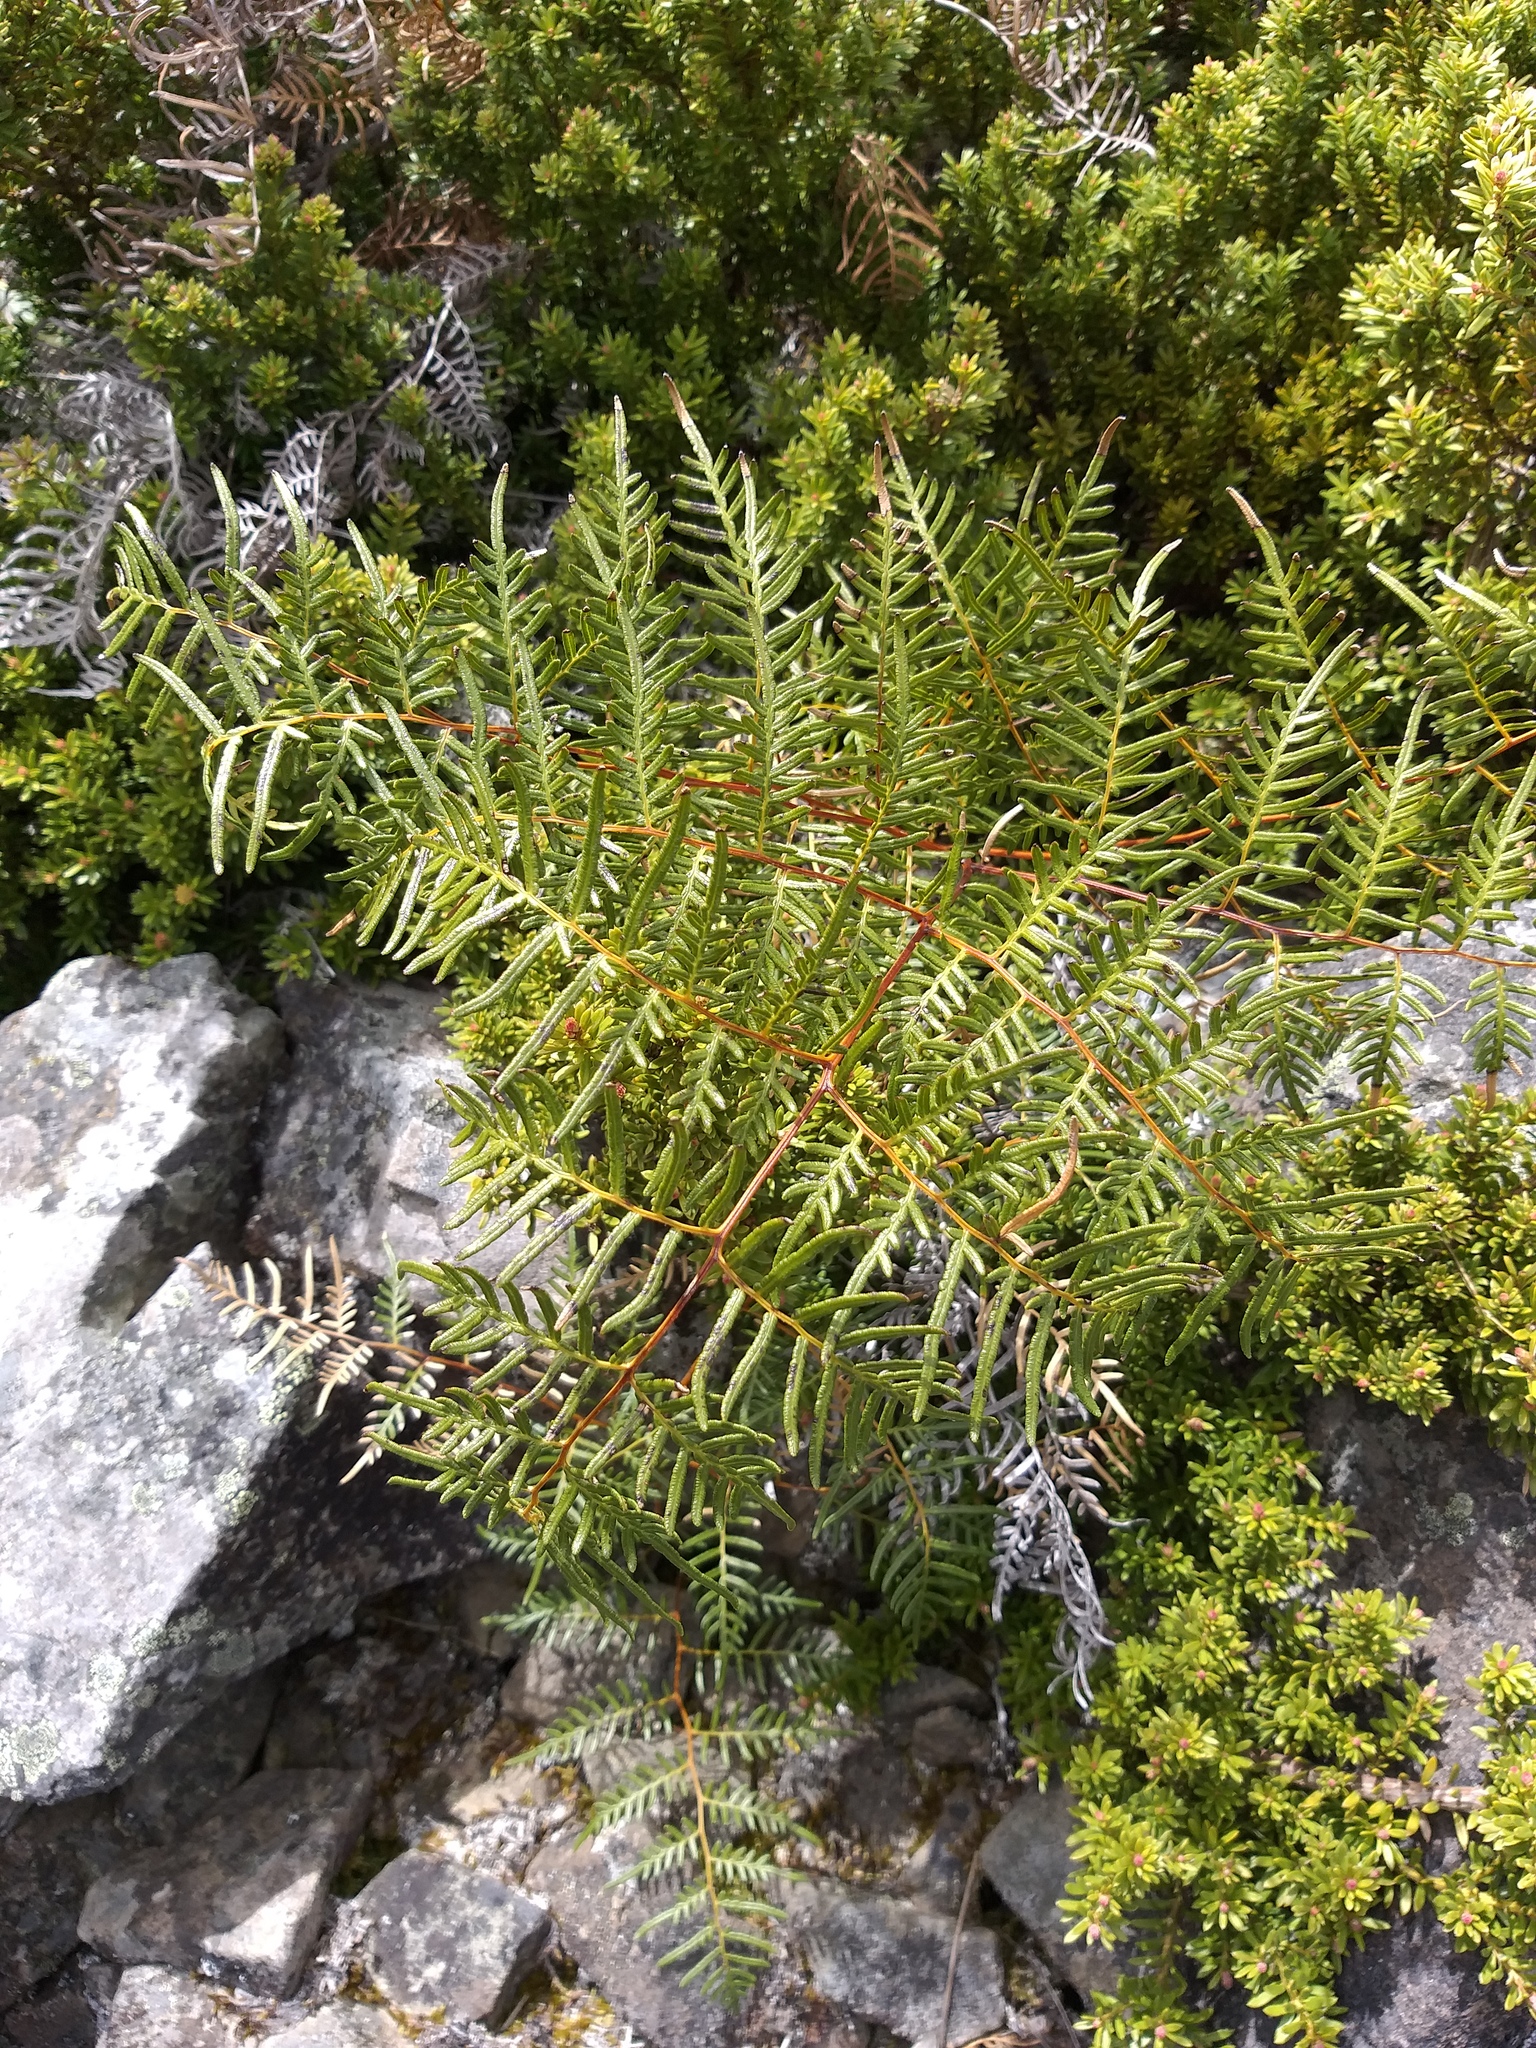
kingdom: Plantae
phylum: Tracheophyta
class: Polypodiopsida
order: Polypodiales
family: Dennstaedtiaceae
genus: Pteridium
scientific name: Pteridium esculentum
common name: Bracken fern
